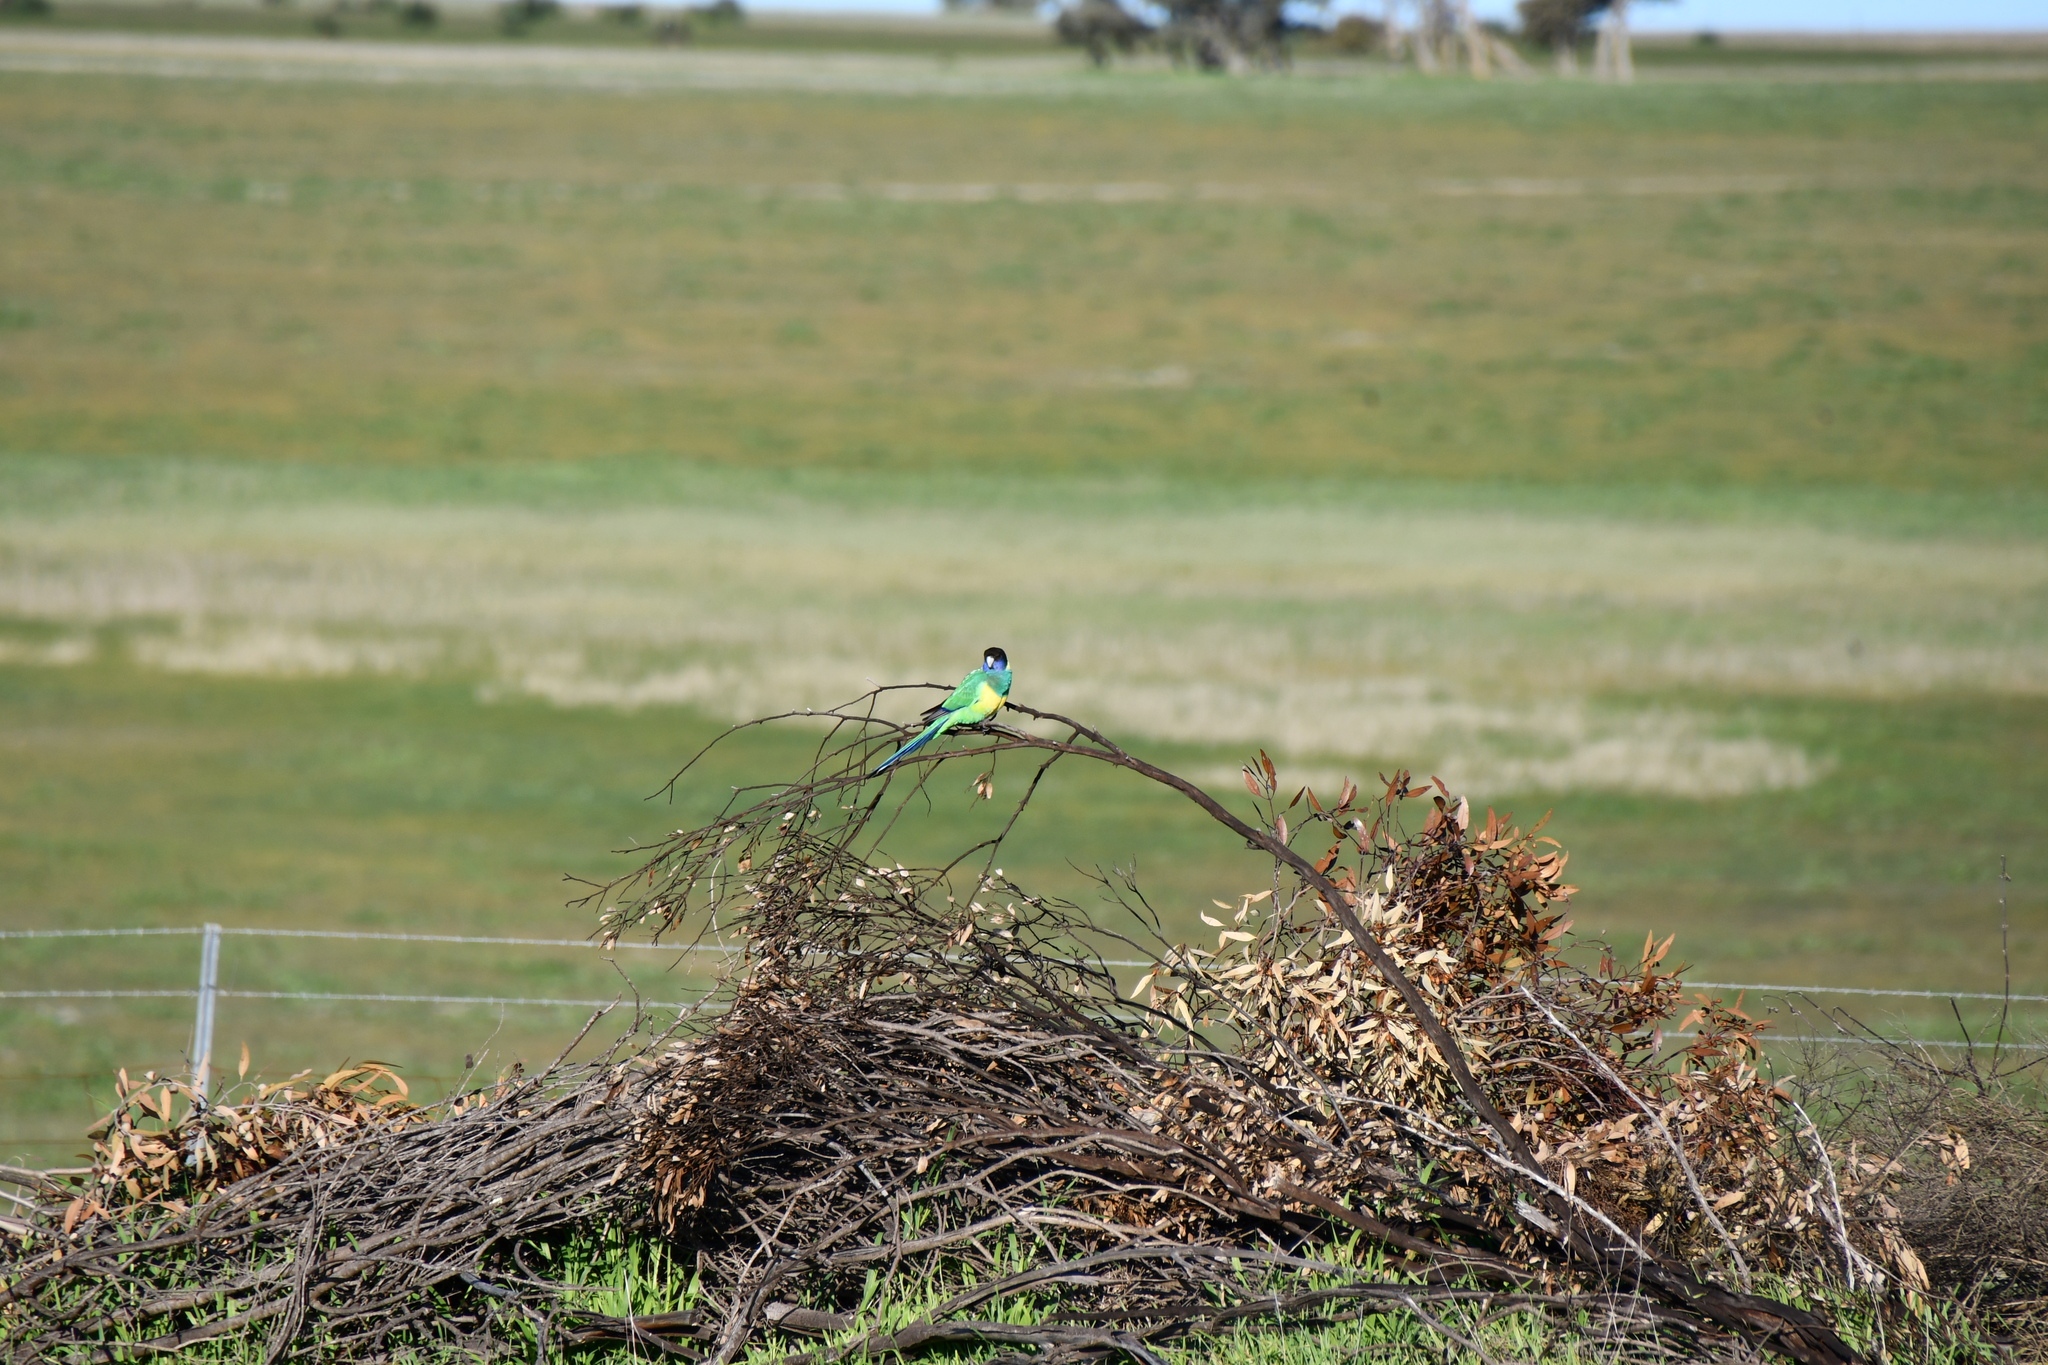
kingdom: Animalia
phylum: Chordata
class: Aves
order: Psittaciformes
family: Psittacidae
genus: Barnardius
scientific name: Barnardius zonarius
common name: Australian ringneck
